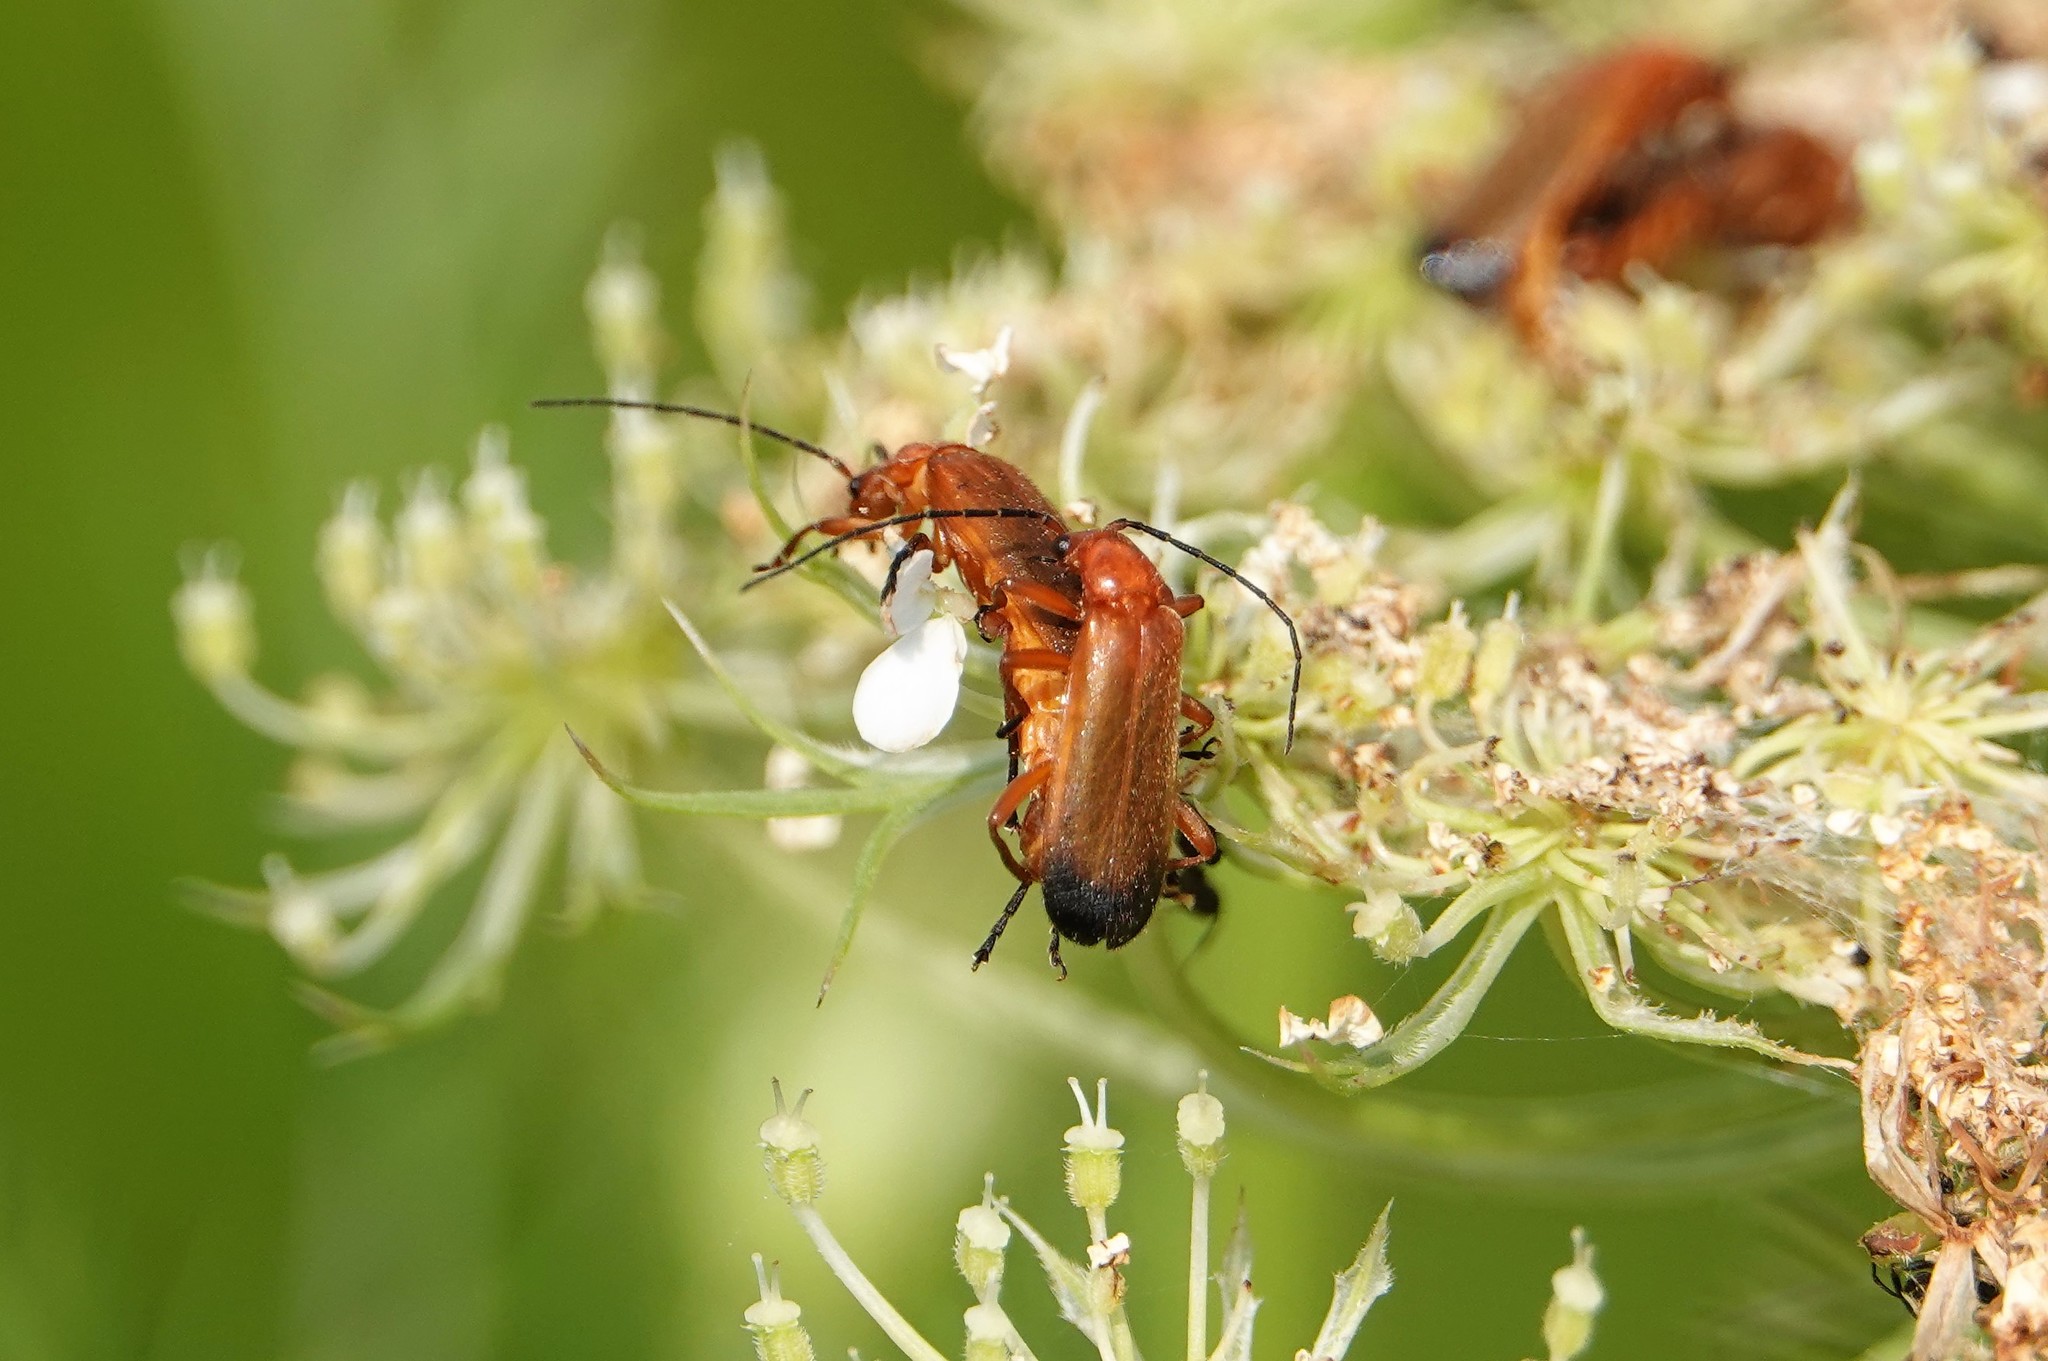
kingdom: Animalia
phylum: Arthropoda
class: Insecta
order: Coleoptera
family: Cantharidae
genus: Rhagonycha
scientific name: Rhagonycha fulva
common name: Common red soldier beetle
